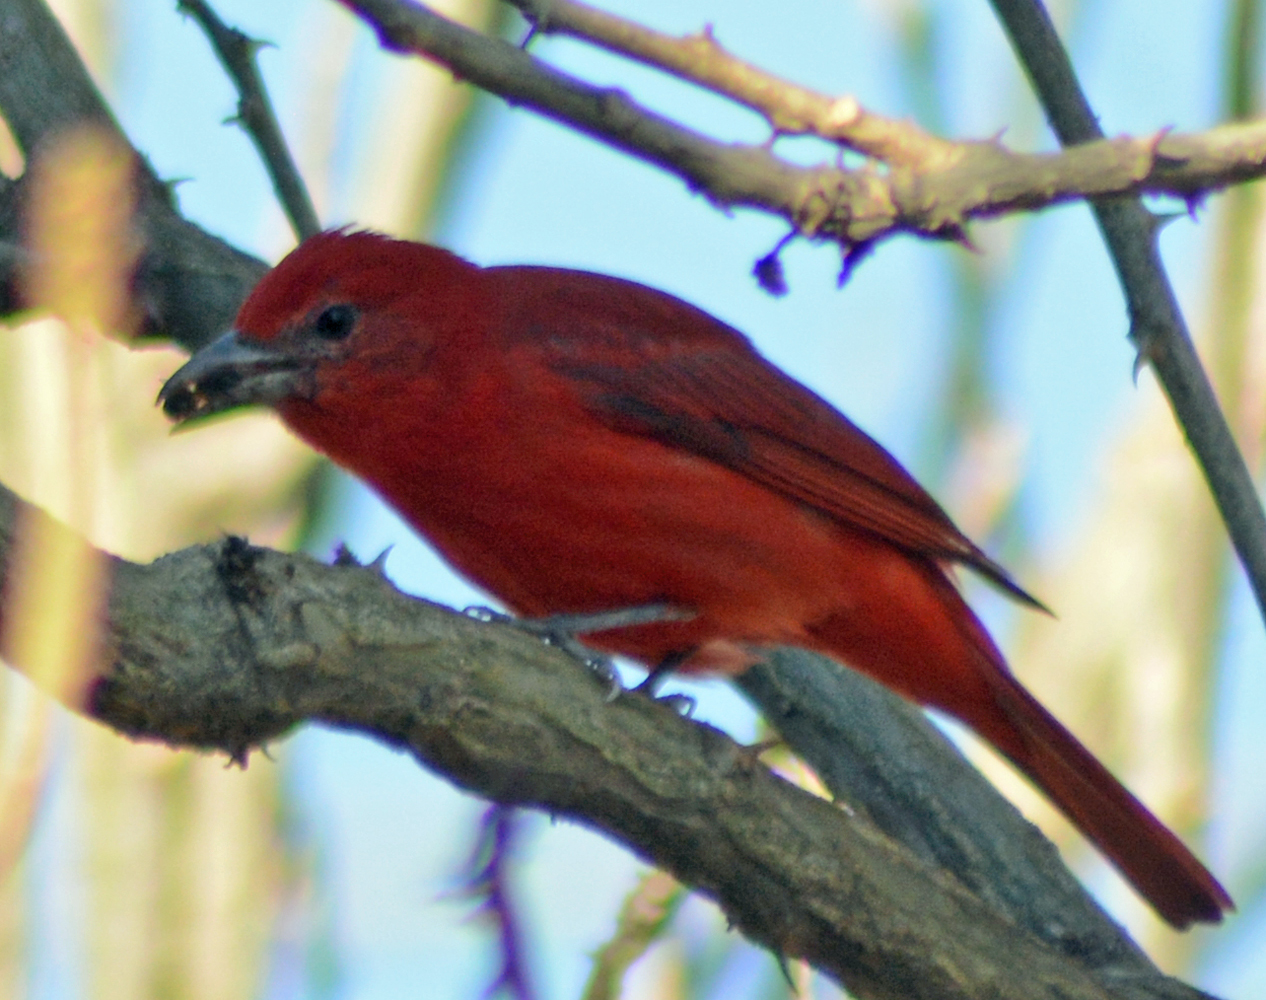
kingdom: Animalia
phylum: Chordata
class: Aves
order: Passeriformes
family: Cardinalidae
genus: Piranga
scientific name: Piranga flava
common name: Red tanager
